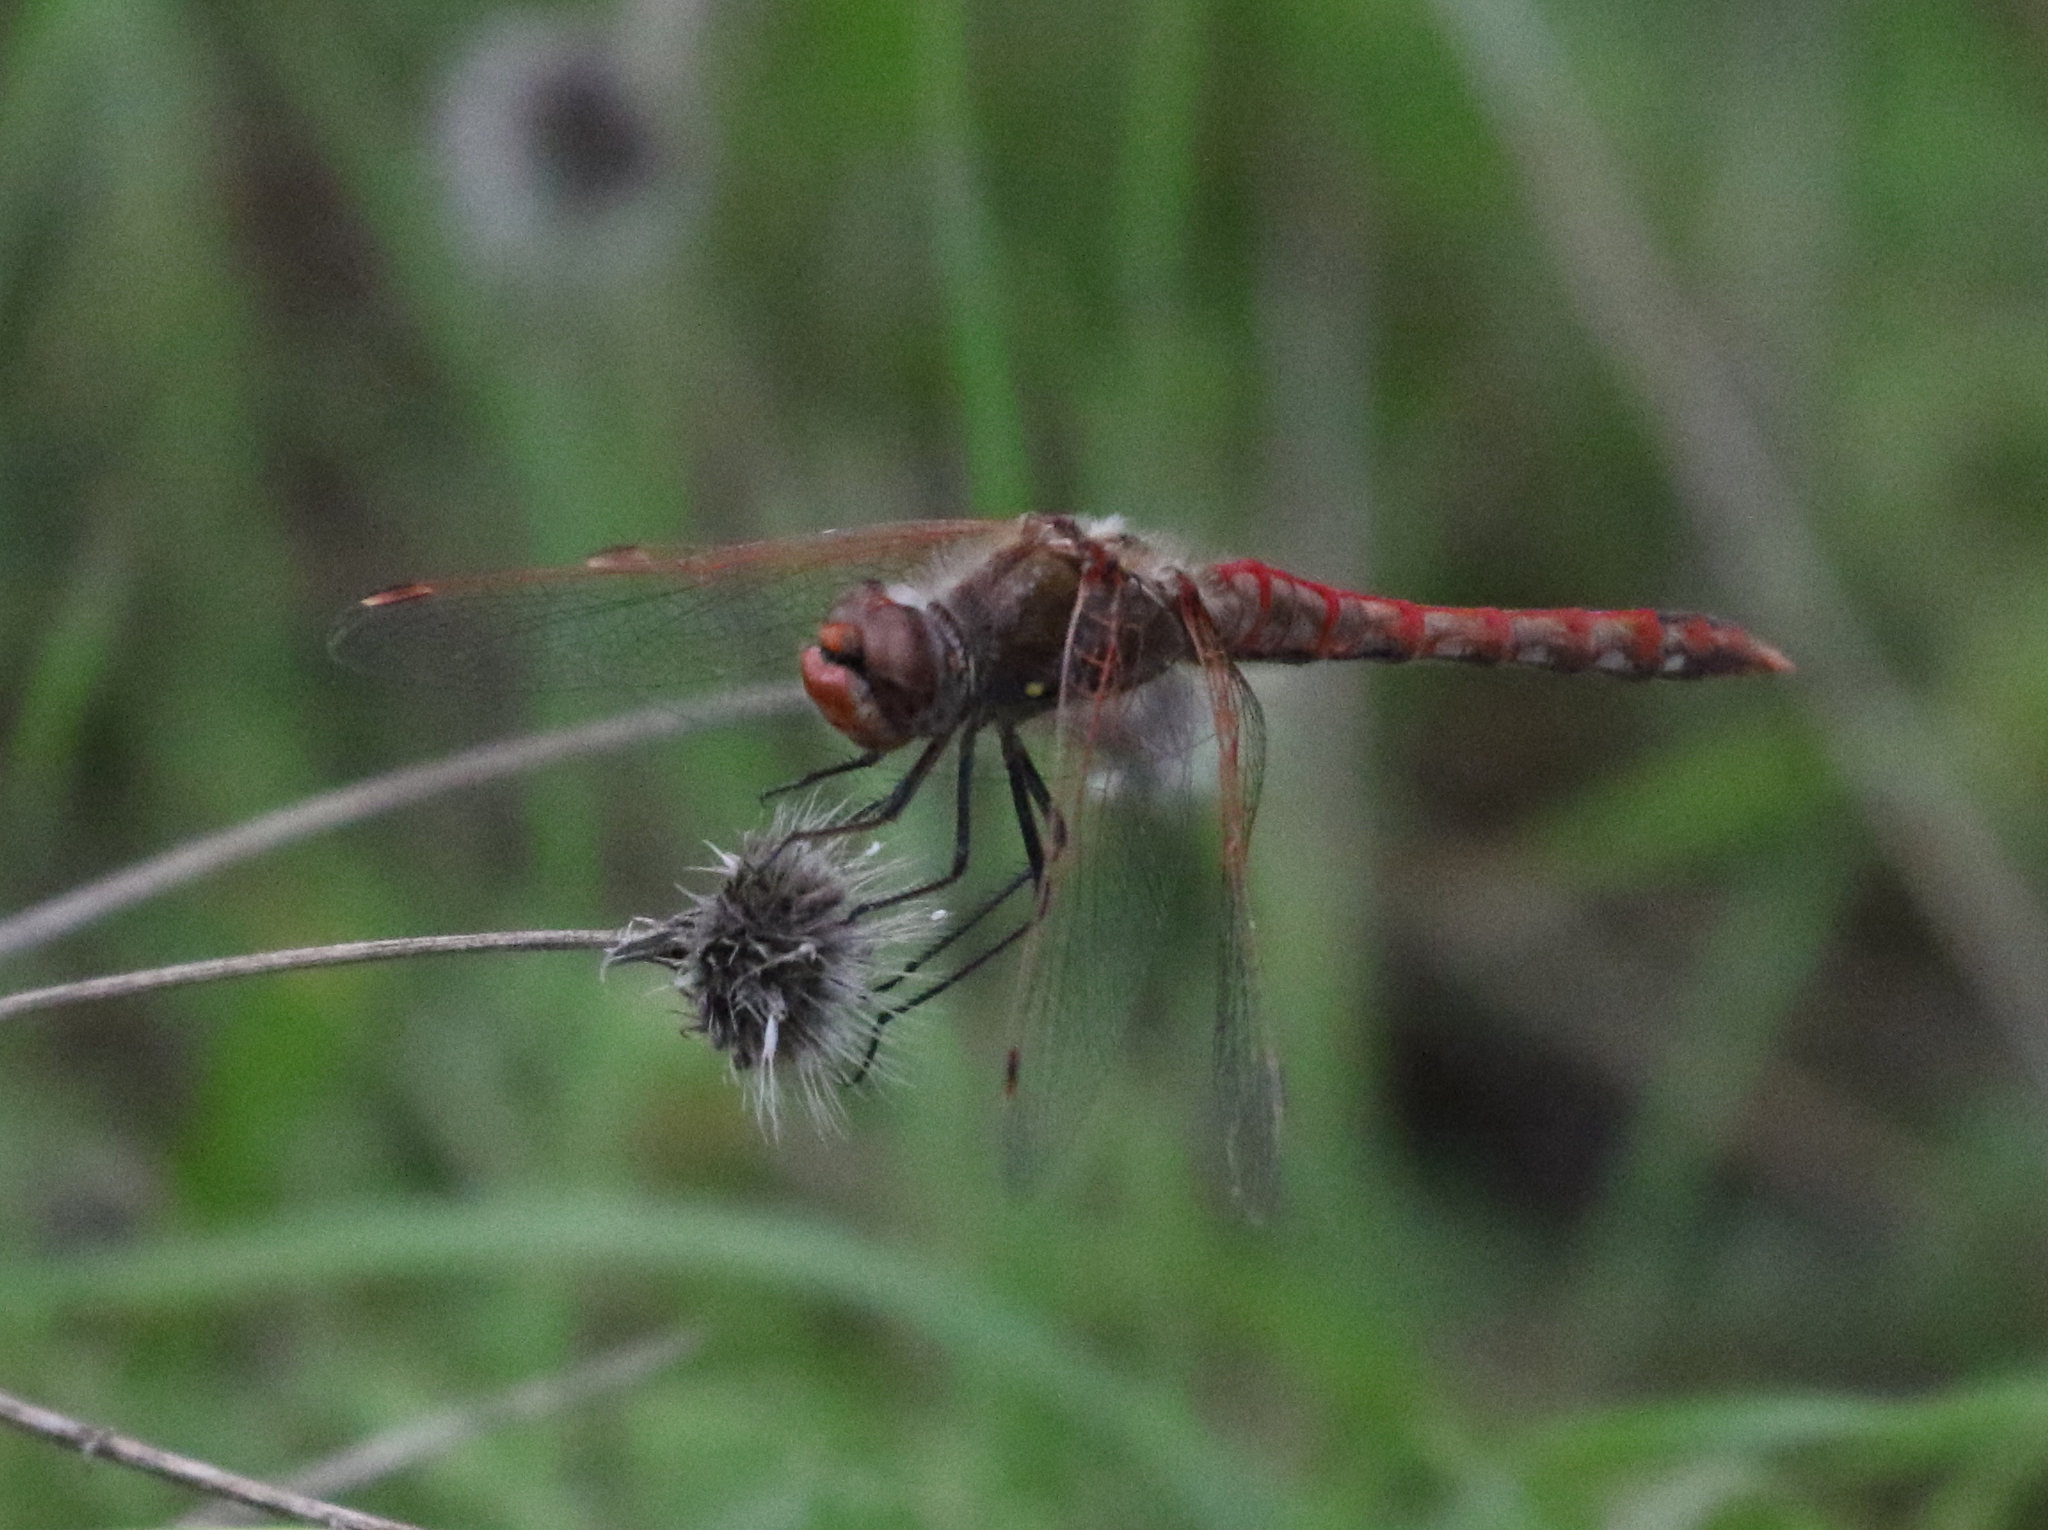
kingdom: Animalia
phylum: Arthropoda
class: Insecta
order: Odonata
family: Libellulidae
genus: Sympetrum
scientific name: Sympetrum corruptum
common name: Variegated meadowhawk
